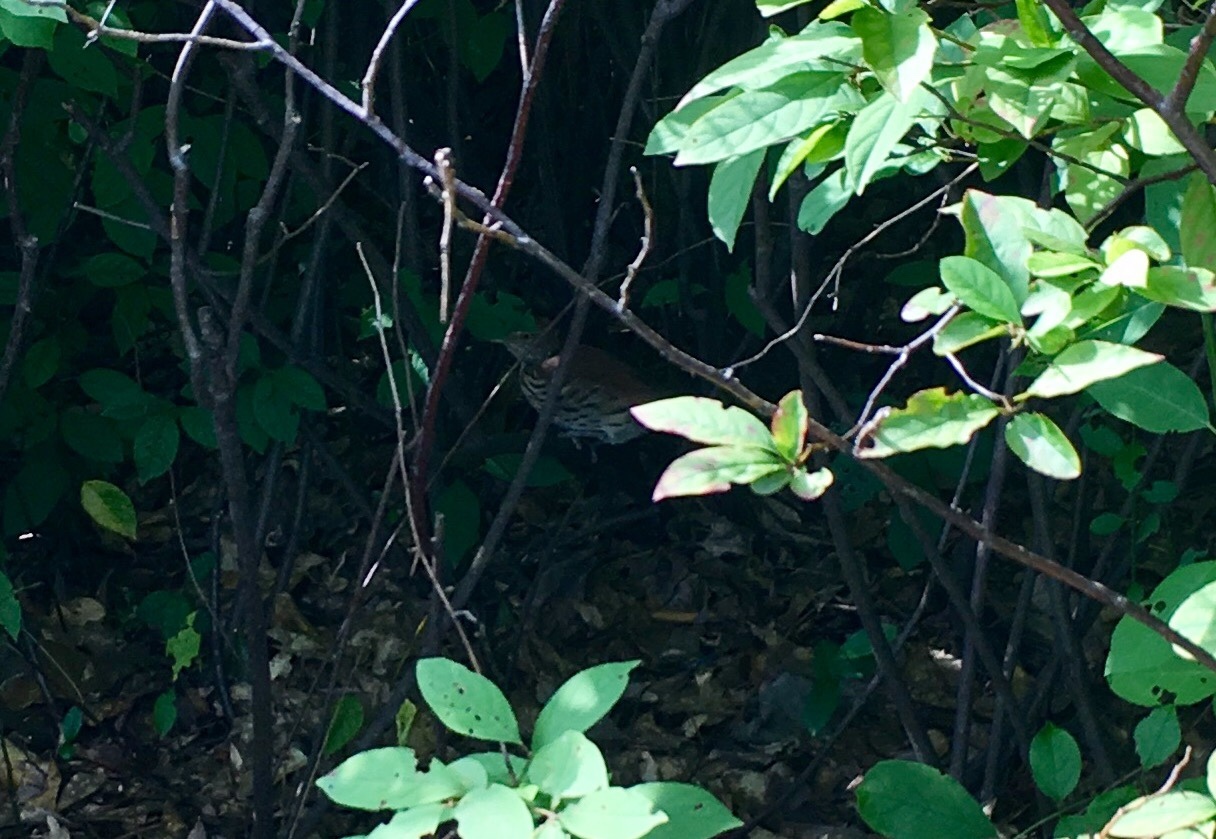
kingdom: Animalia
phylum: Chordata
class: Aves
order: Passeriformes
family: Mimidae
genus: Toxostoma
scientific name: Toxostoma rufum
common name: Brown thrasher
